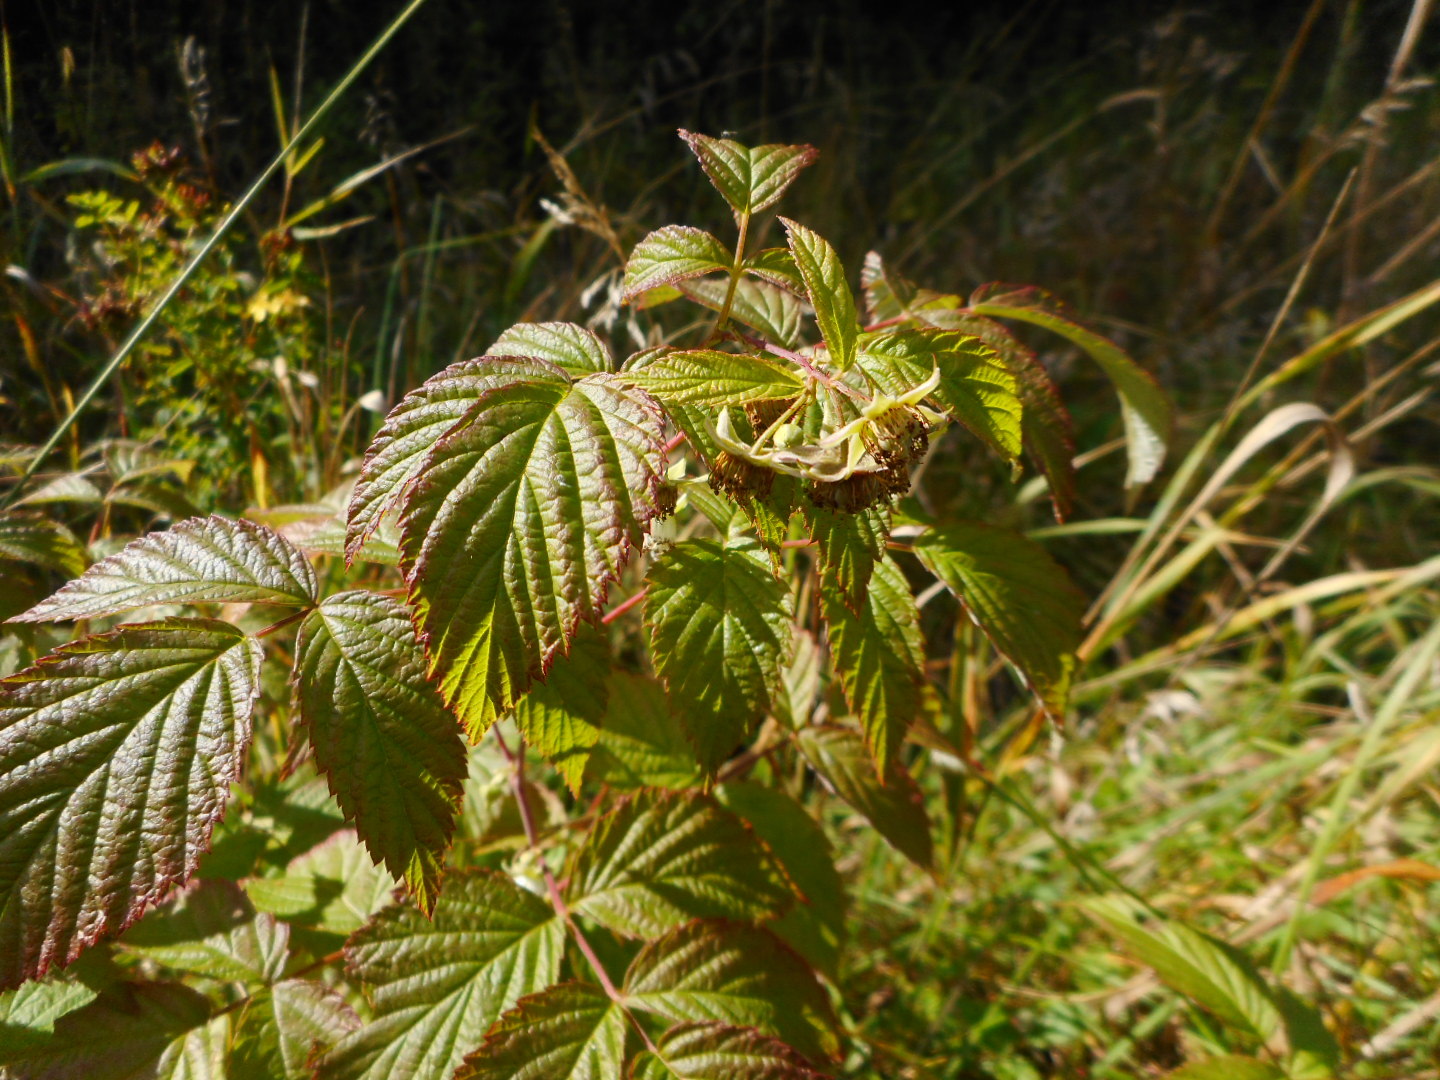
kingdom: Plantae
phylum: Tracheophyta
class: Magnoliopsida
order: Rosales
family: Rosaceae
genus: Rubus
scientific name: Rubus idaeus
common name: Raspberry
